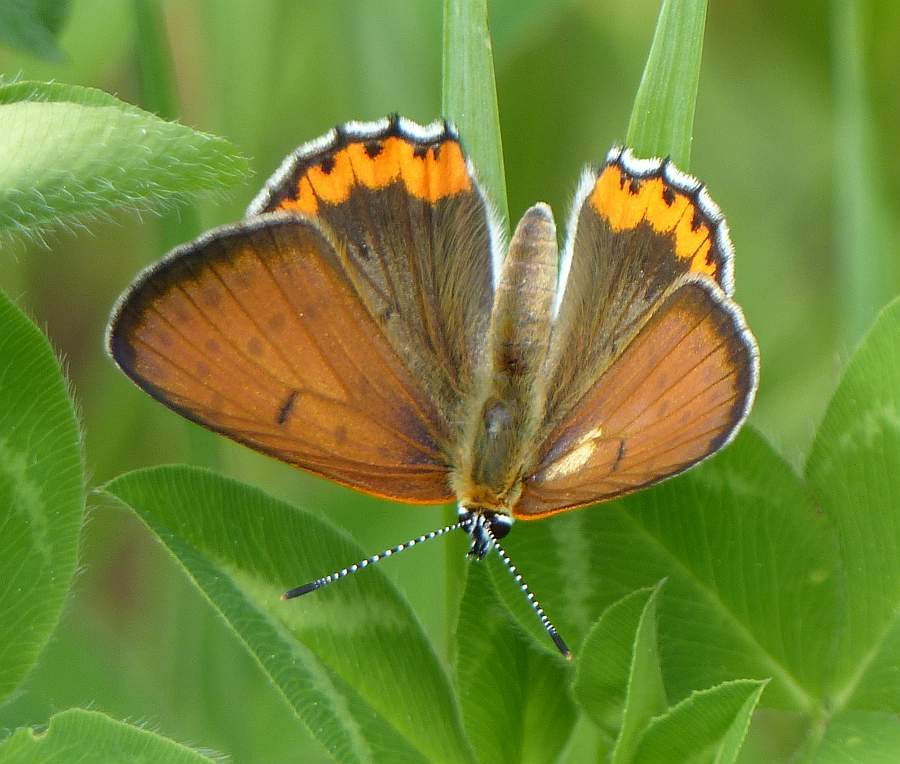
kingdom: Animalia
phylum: Arthropoda
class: Insecta
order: Lepidoptera
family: Lycaenidae
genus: Tharsalea
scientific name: Tharsalea hyllus
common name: Bronze copper
